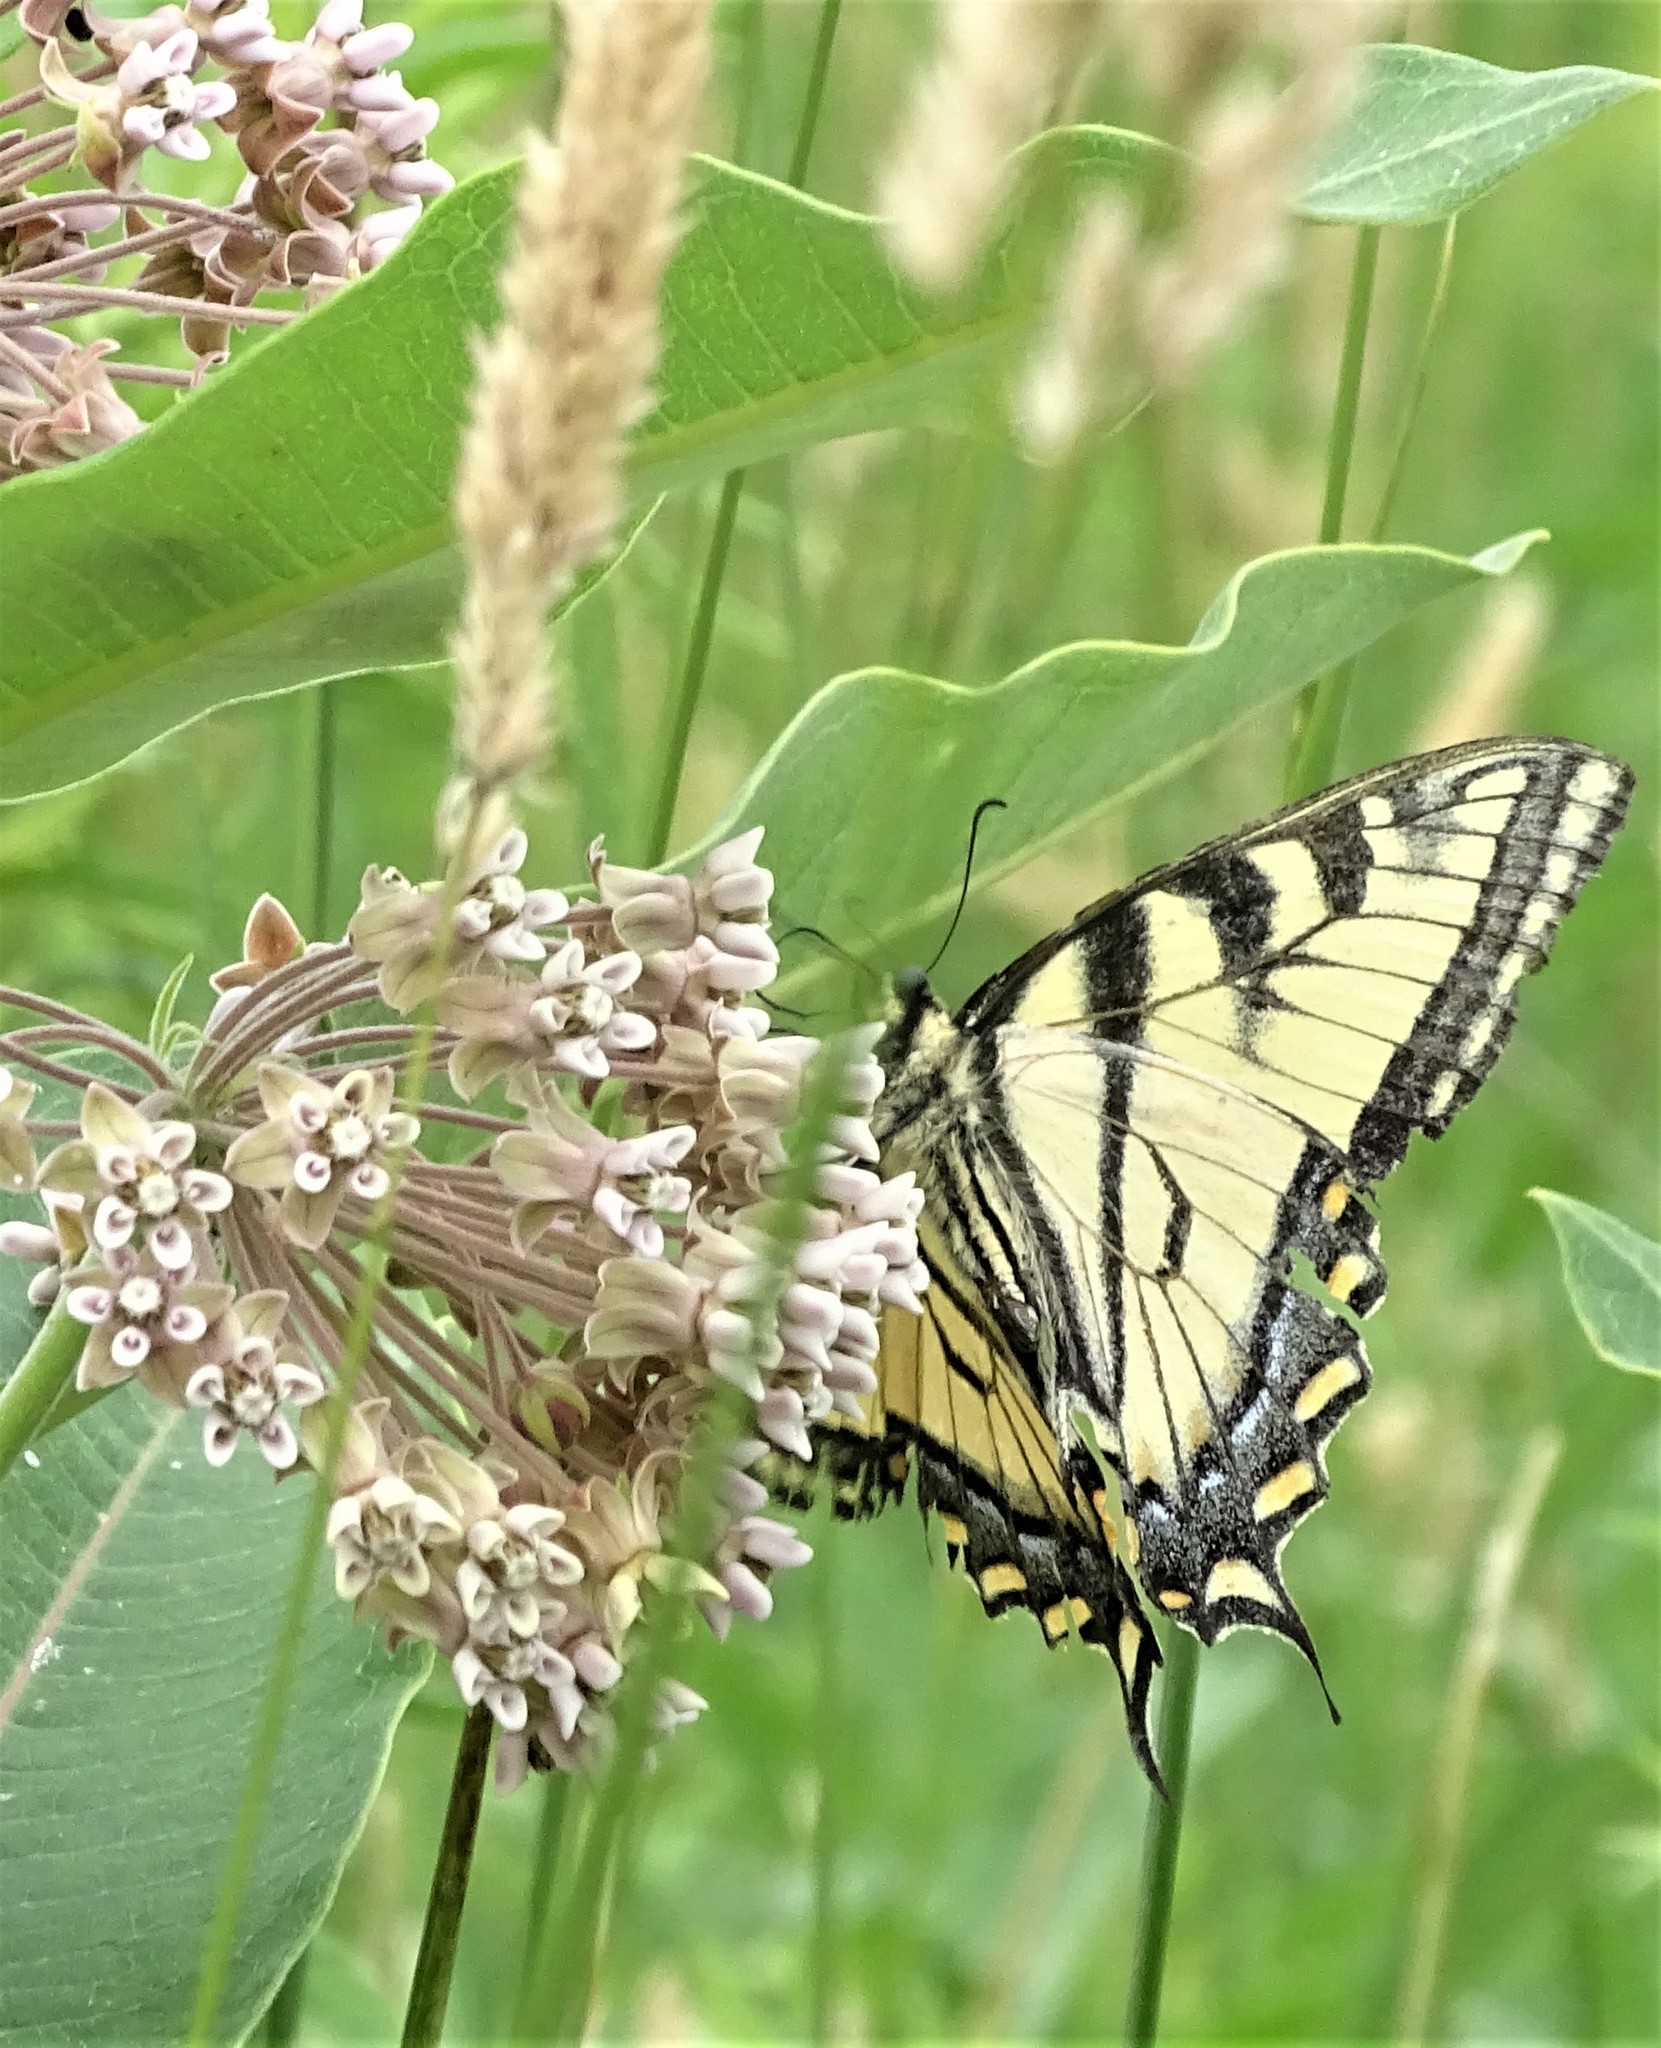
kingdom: Animalia
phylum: Arthropoda
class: Insecta
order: Lepidoptera
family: Papilionidae
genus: Papilio
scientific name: Papilio canadensis
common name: Canadian tiger swallowtail
